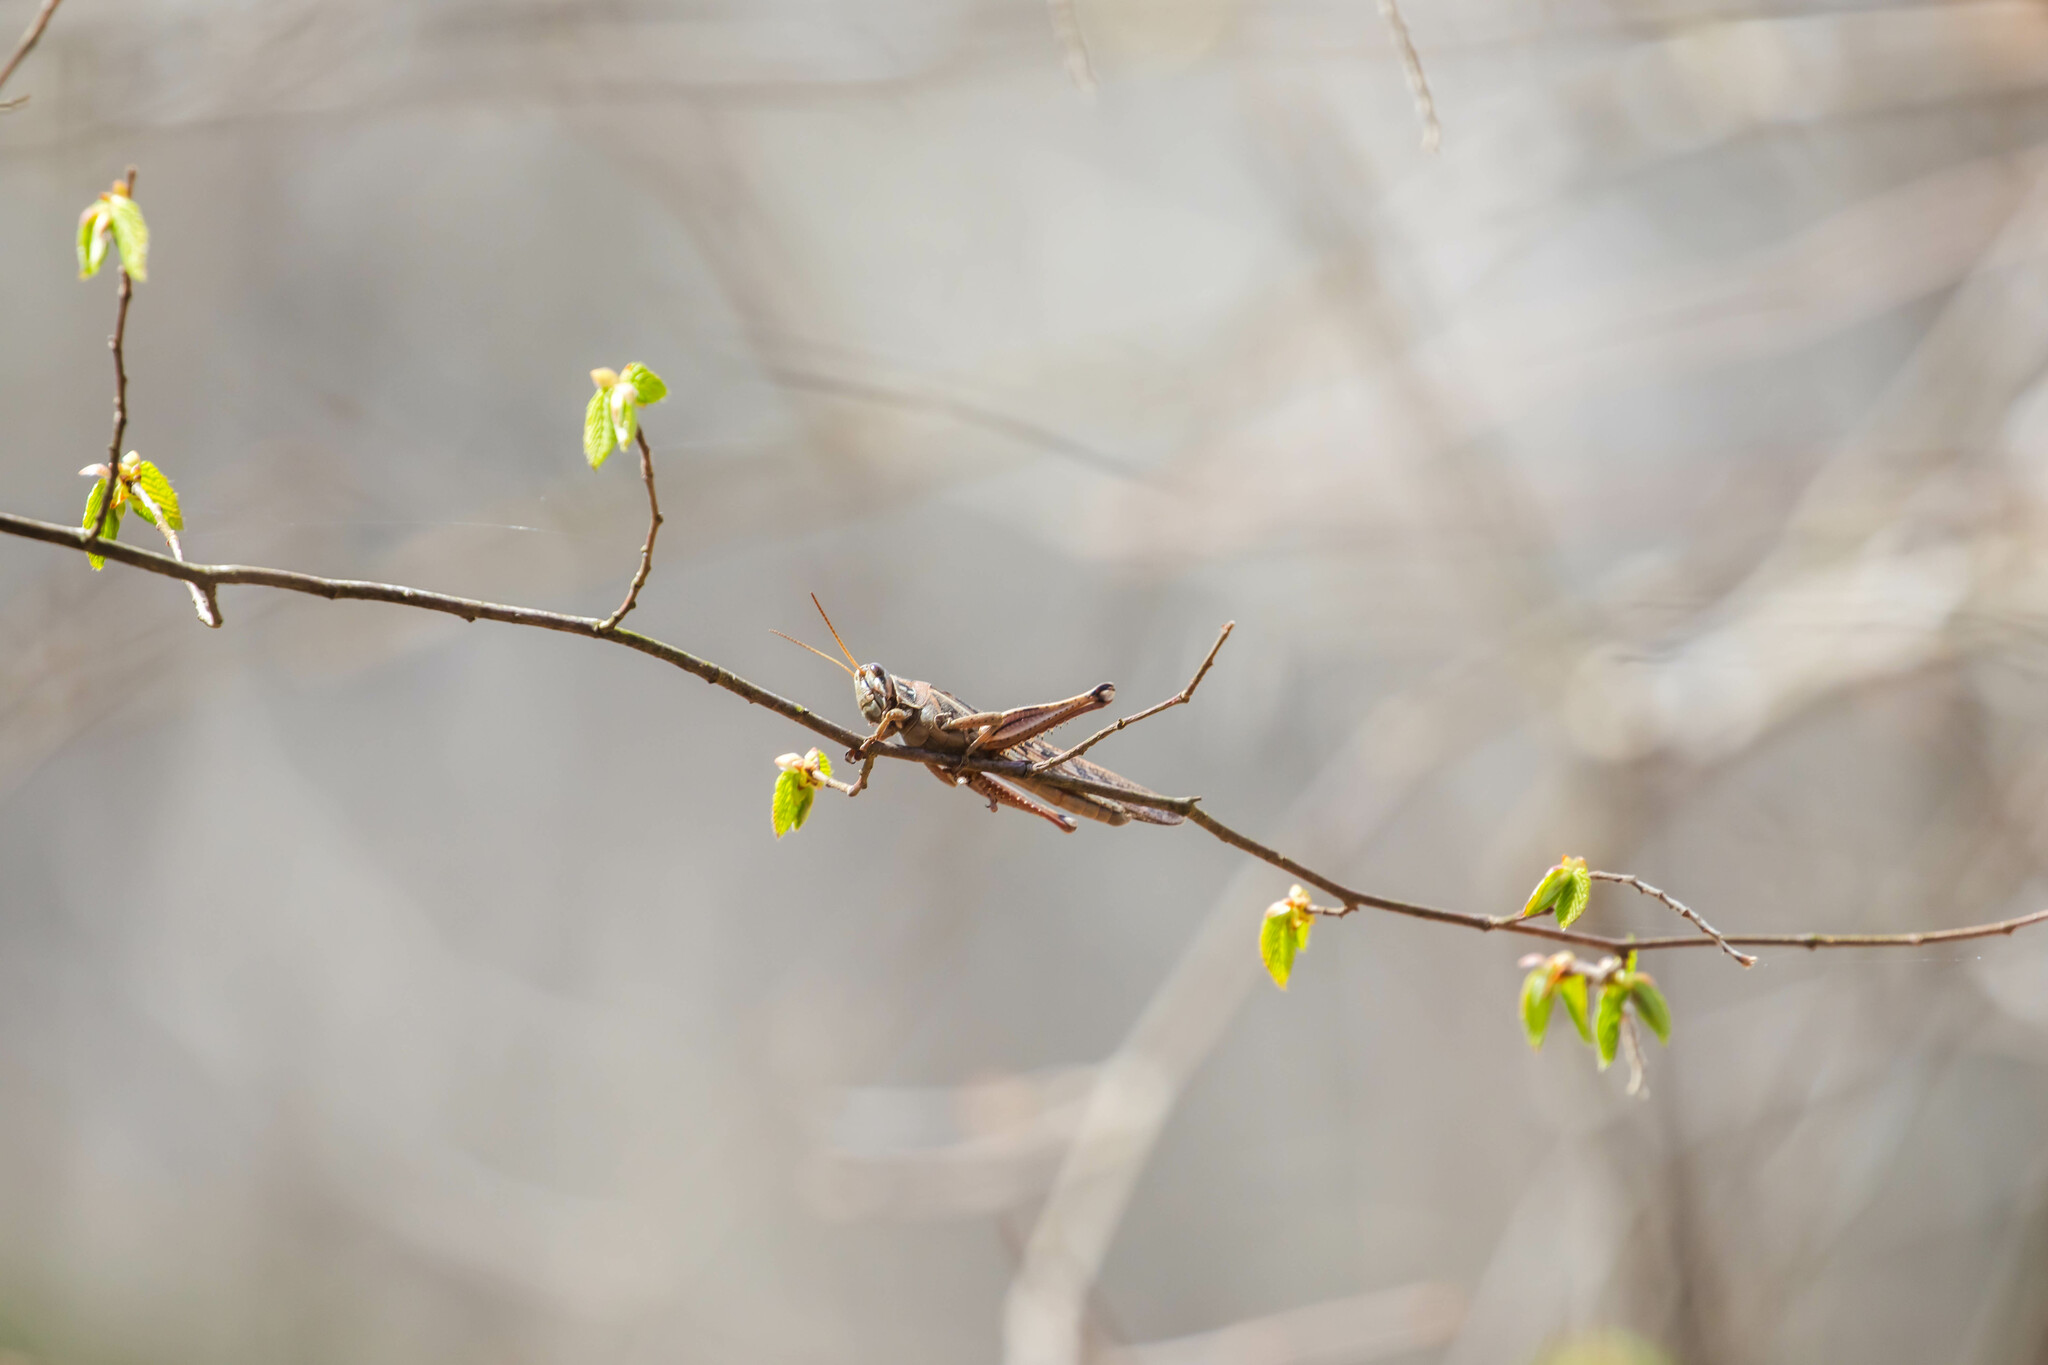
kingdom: Animalia
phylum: Arthropoda
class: Insecta
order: Orthoptera
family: Acrididae
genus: Schistocerca
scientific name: Schistocerca americana
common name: American bird locust
